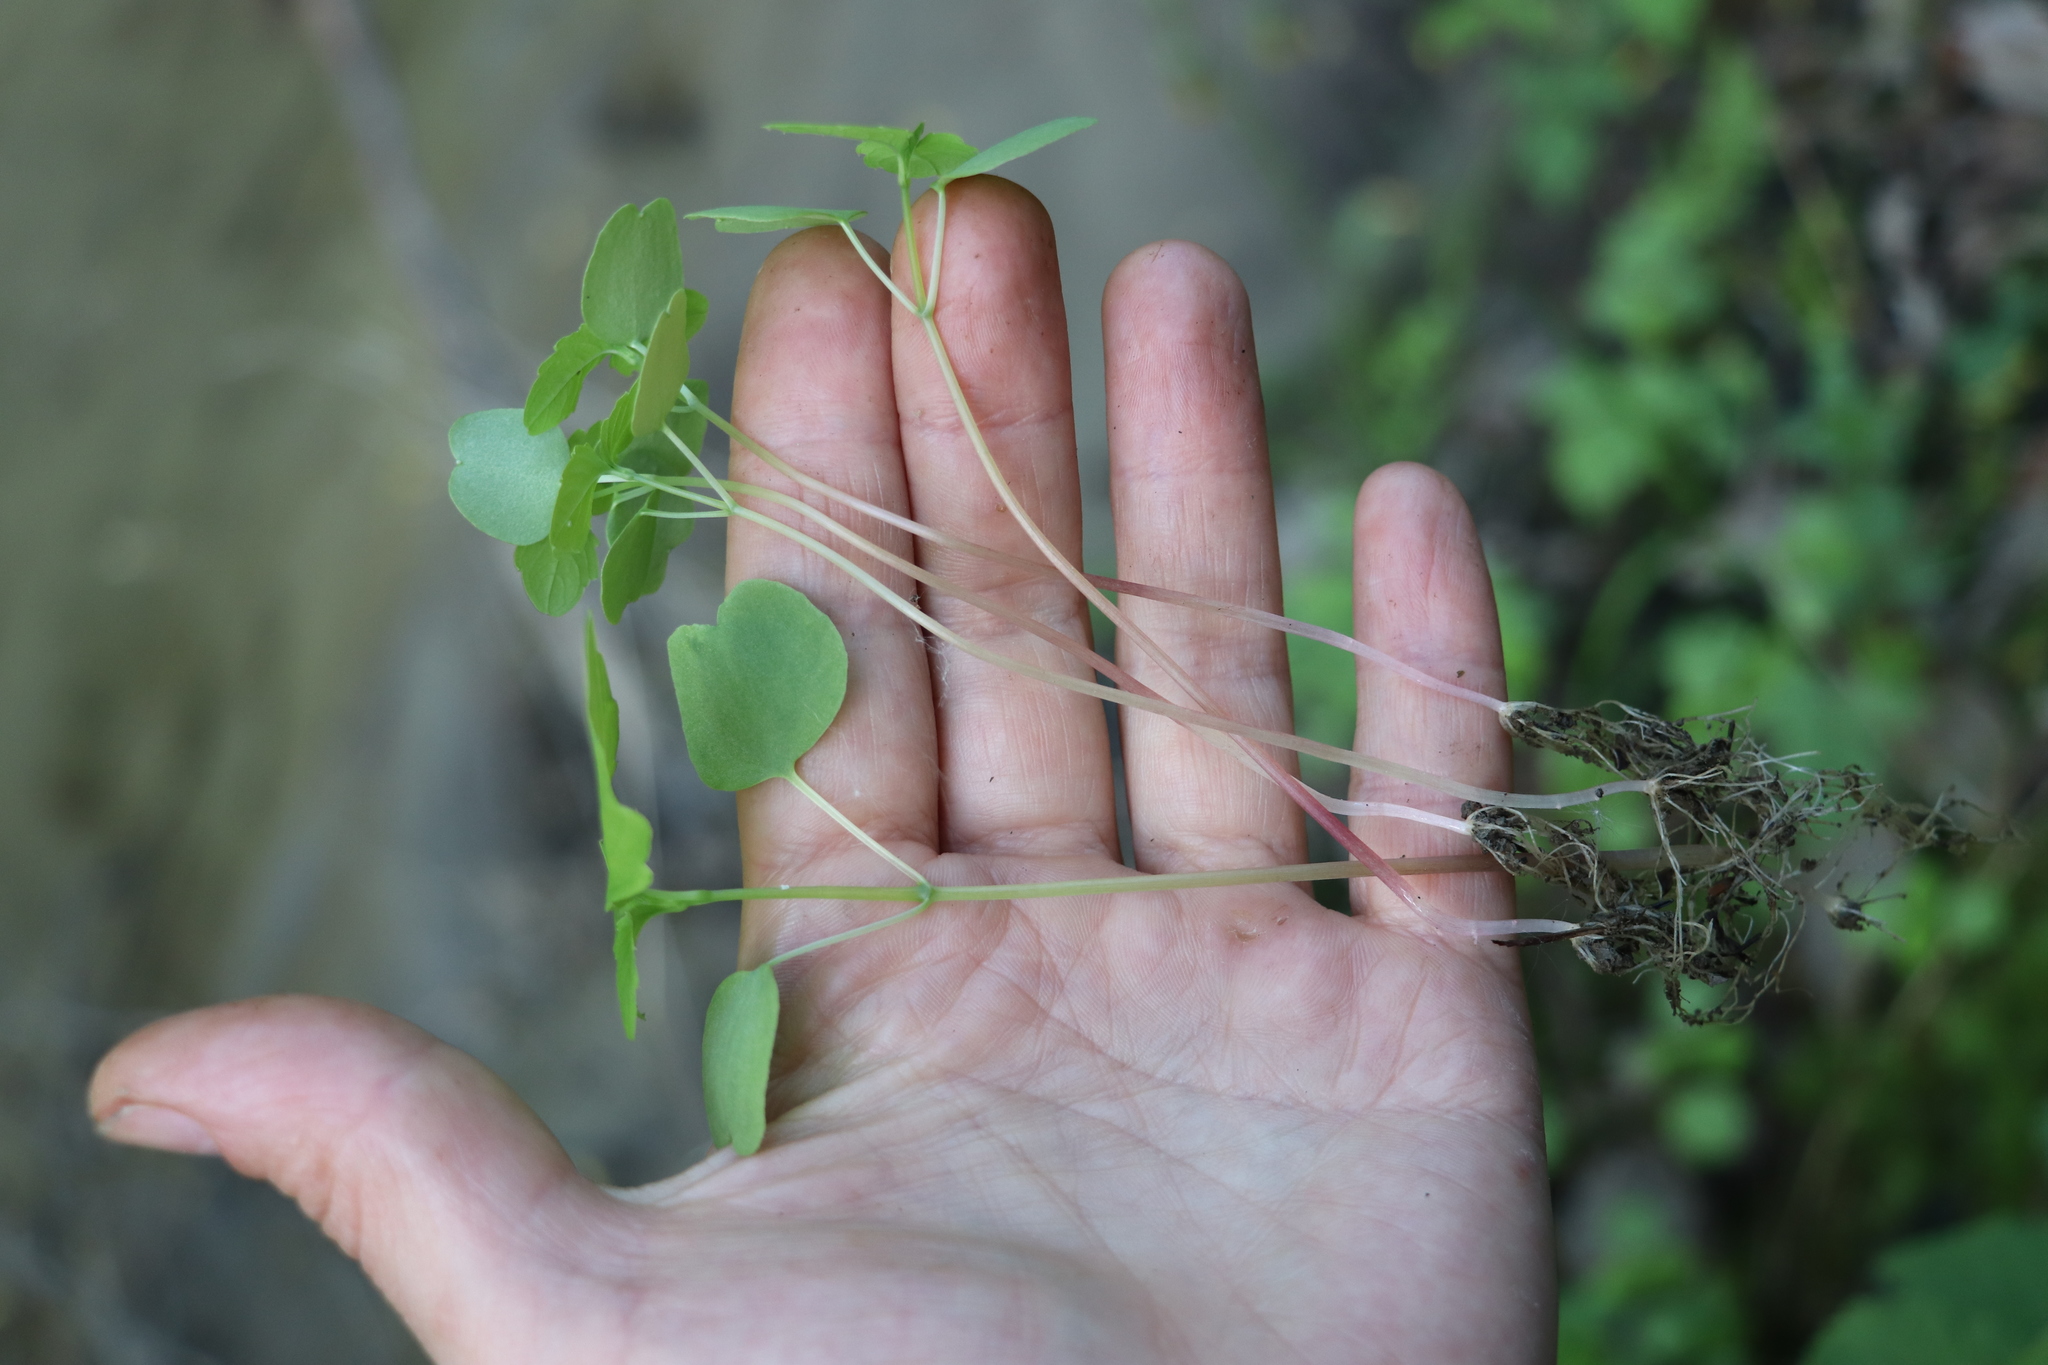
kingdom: Plantae
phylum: Tracheophyta
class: Magnoliopsida
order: Ericales
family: Balsaminaceae
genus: Impatiens
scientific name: Impatiens noli-tangere
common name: Touch-me-not balsam
